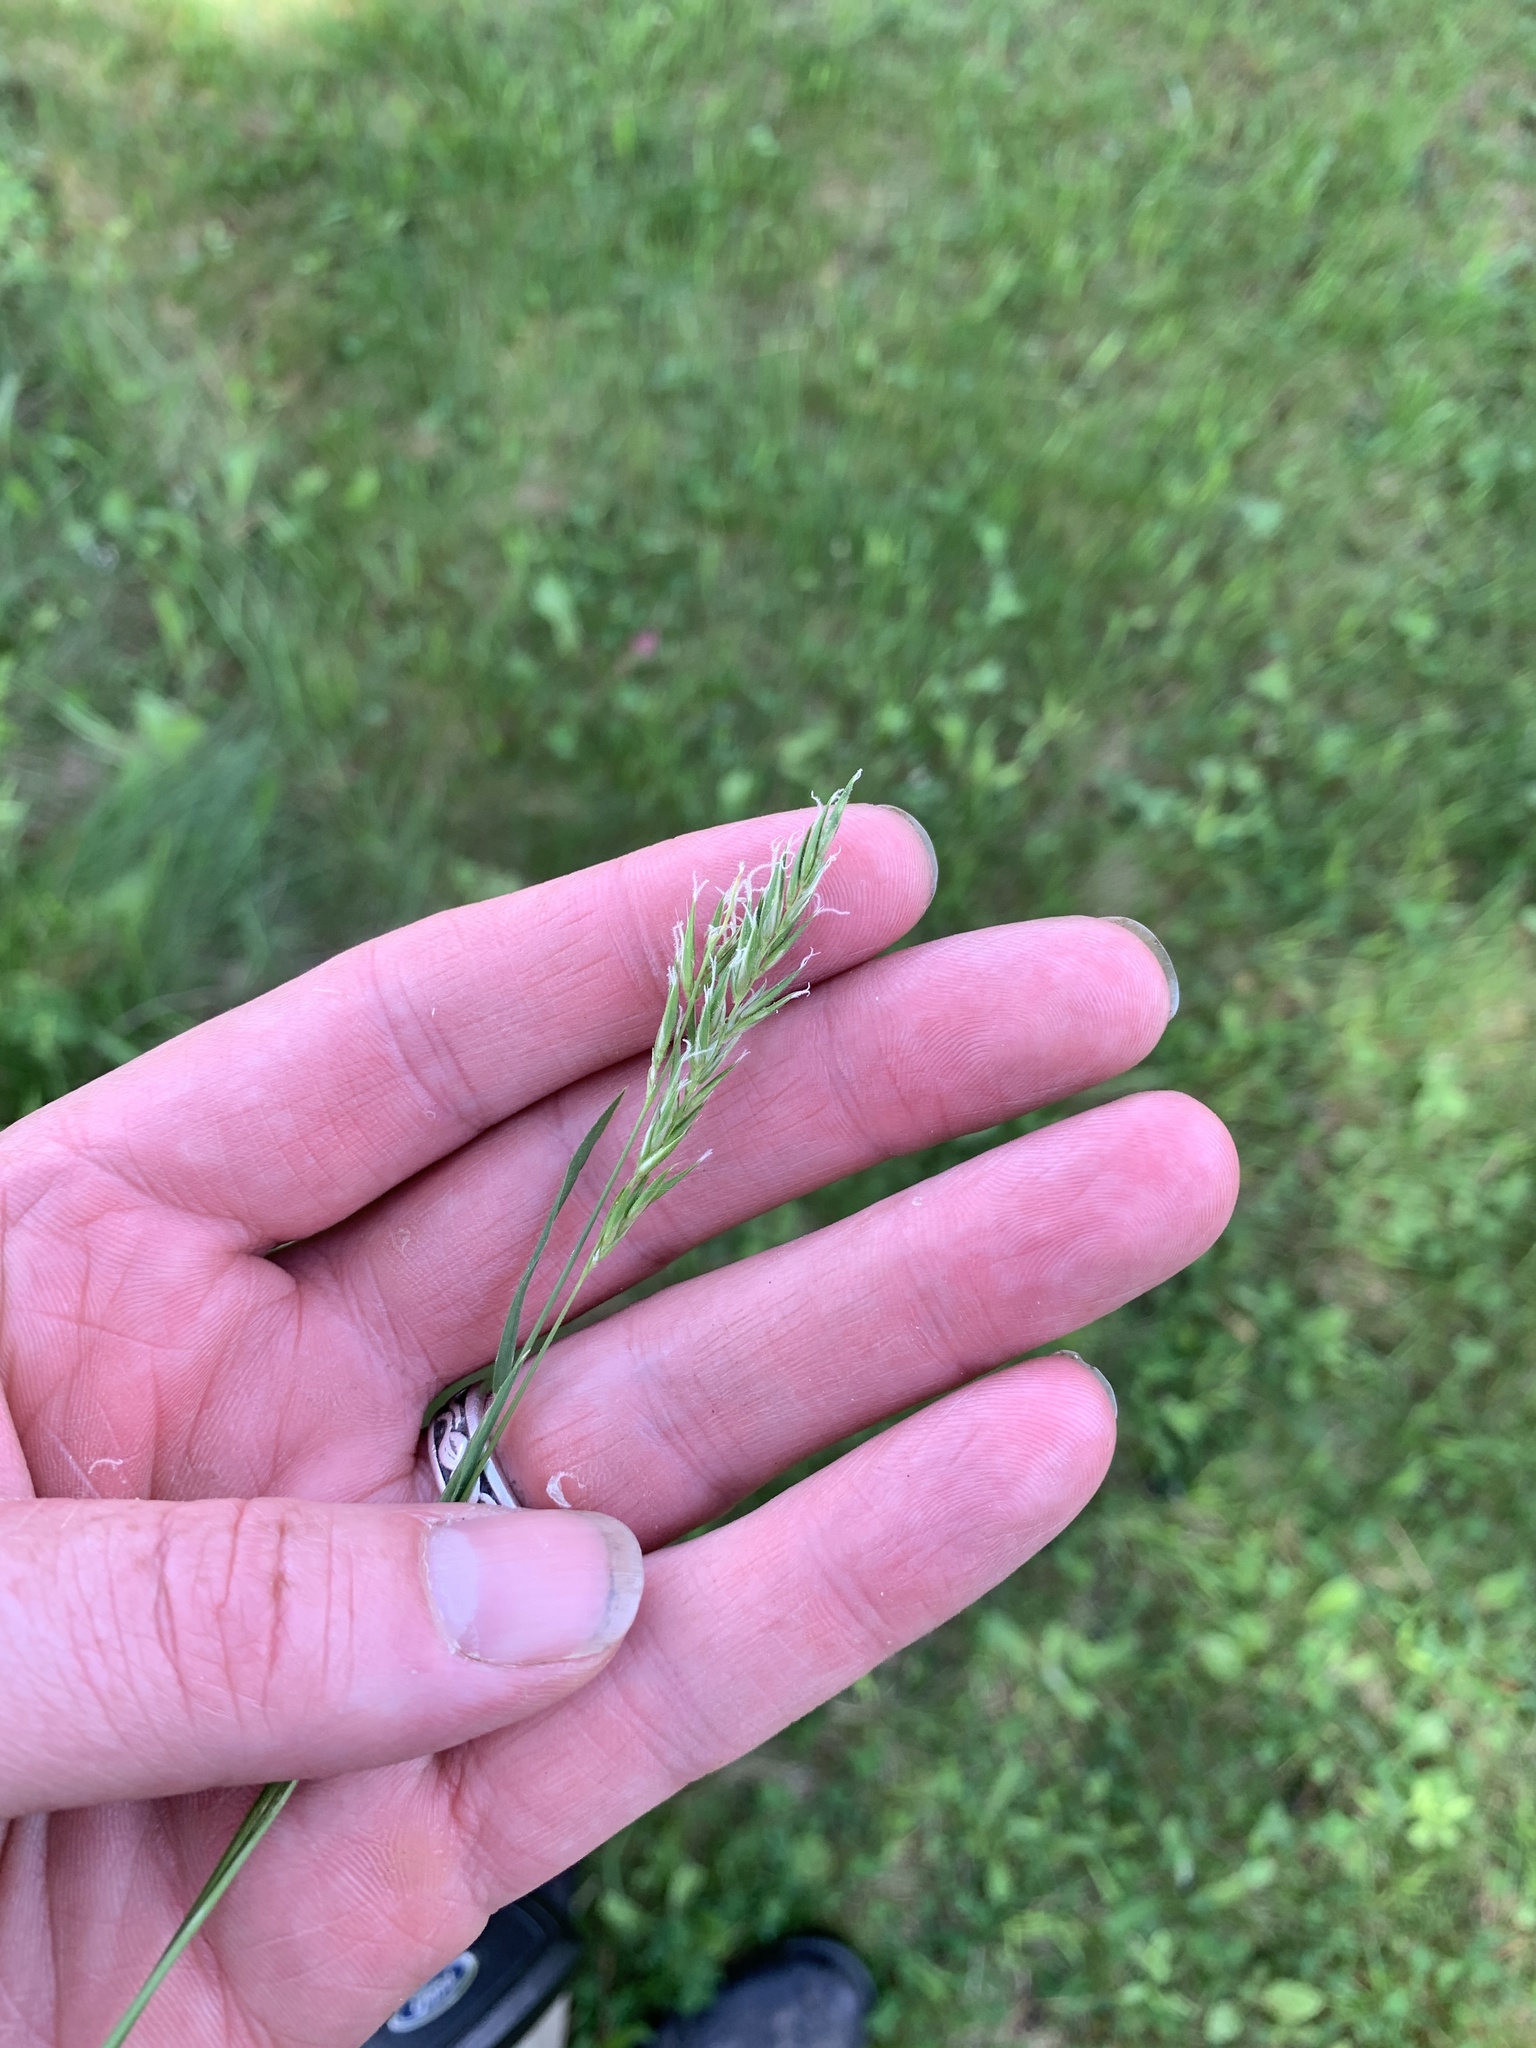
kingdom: Plantae
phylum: Tracheophyta
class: Liliopsida
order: Poales
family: Poaceae
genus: Anthoxanthum
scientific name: Anthoxanthum odoratum
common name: Sweet vernalgrass
